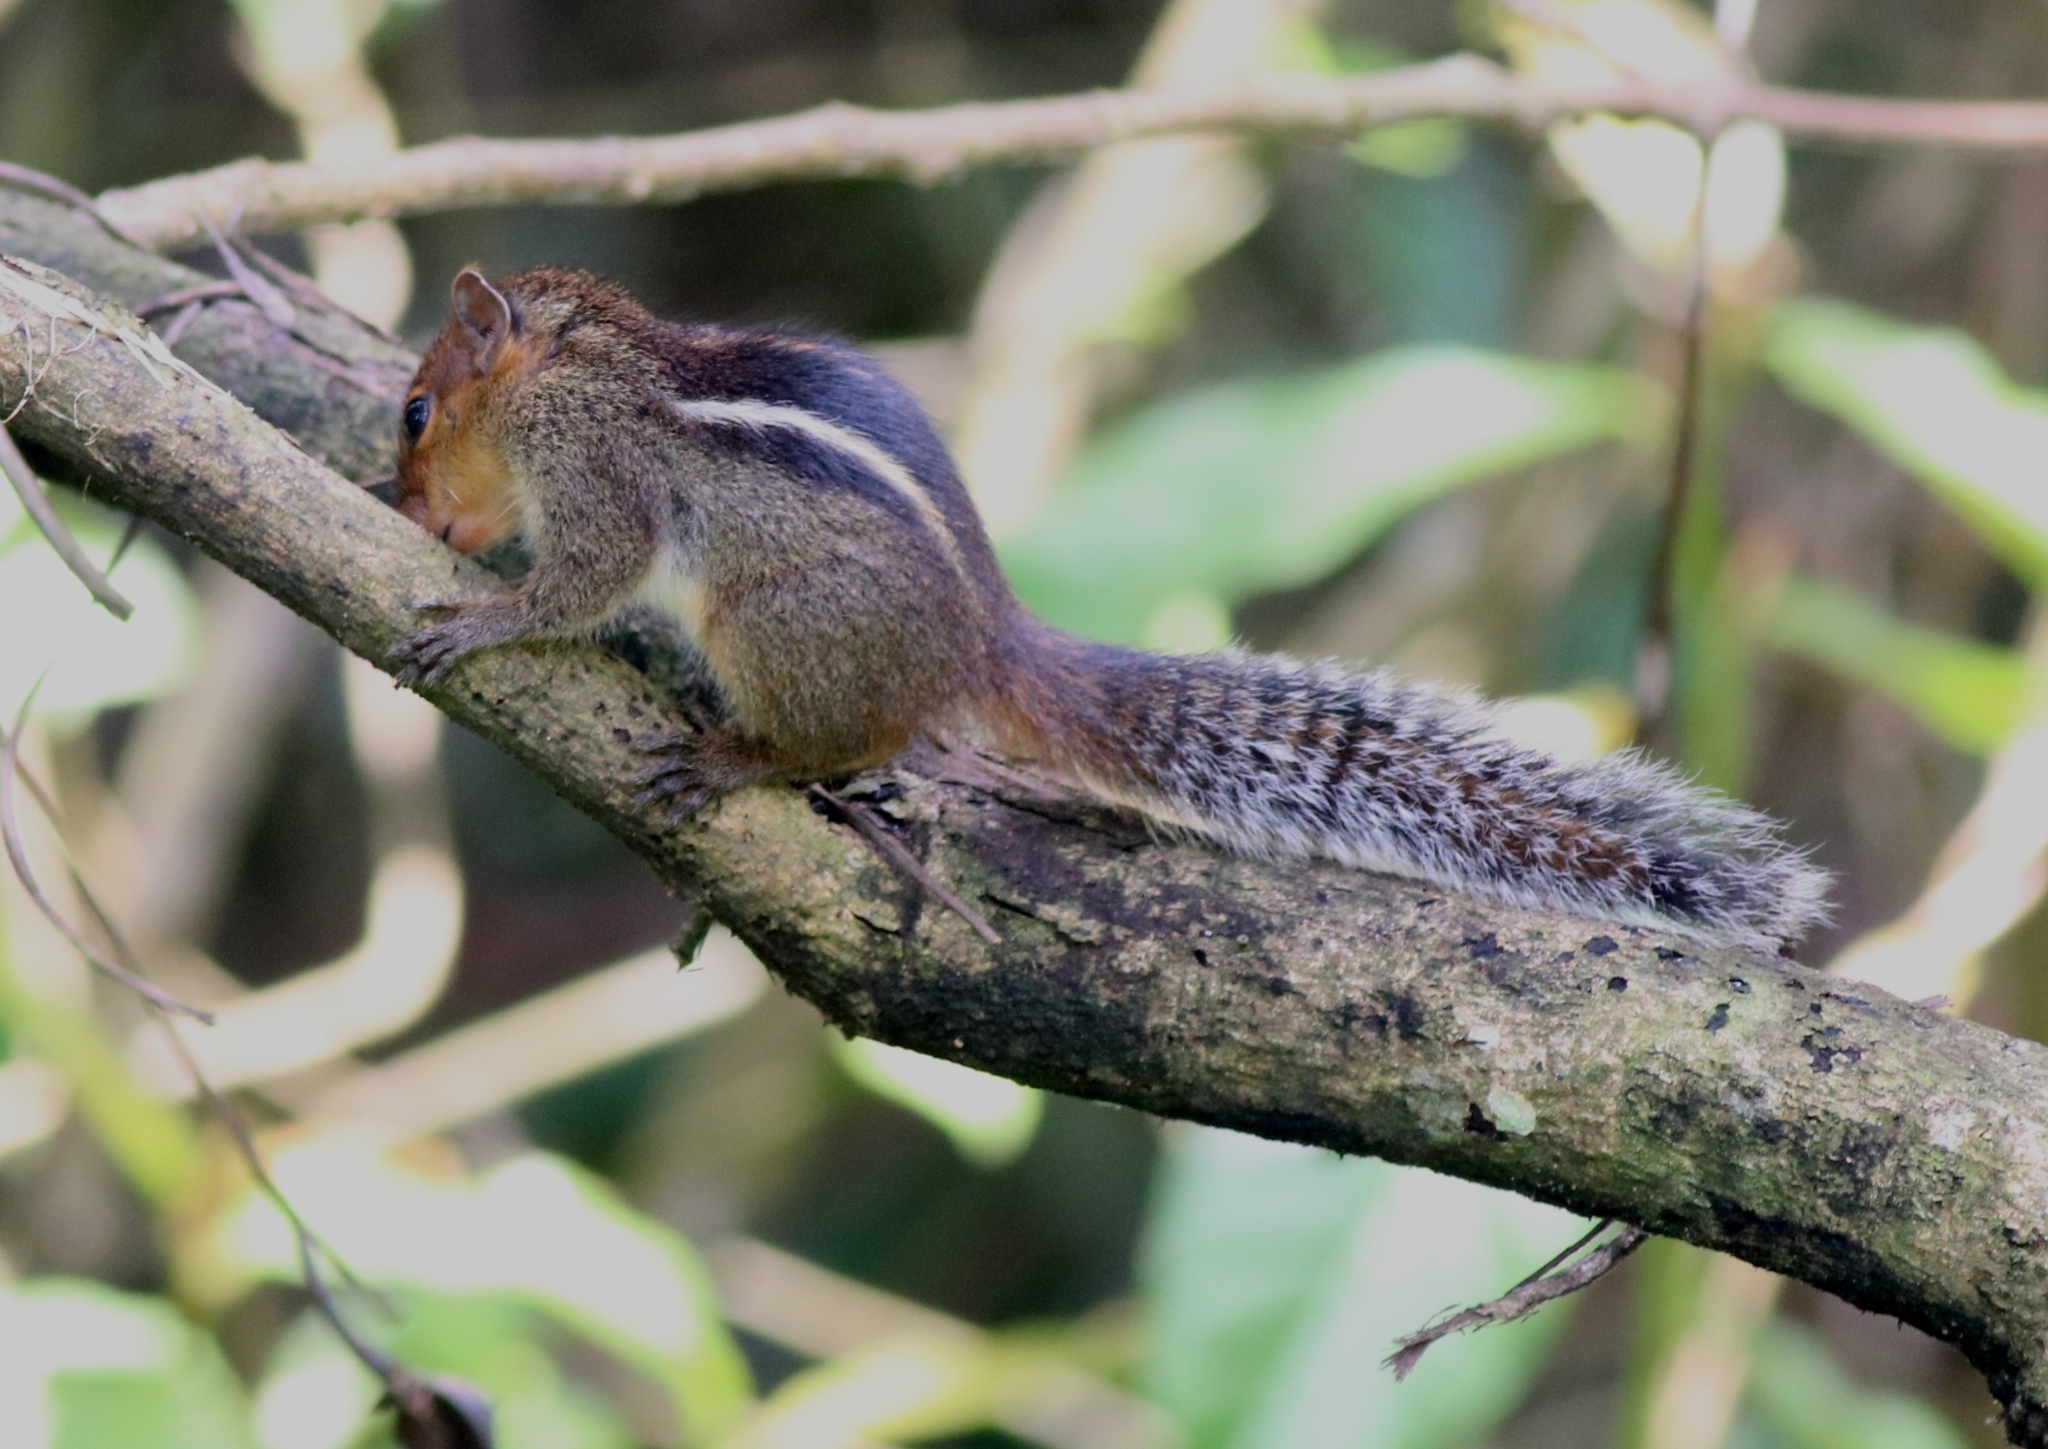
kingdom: Animalia
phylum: Chordata
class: Mammalia
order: Rodentia
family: Sciuridae
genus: Funambulus
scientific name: Funambulus tristriatus
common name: Jungle palm squirrel
